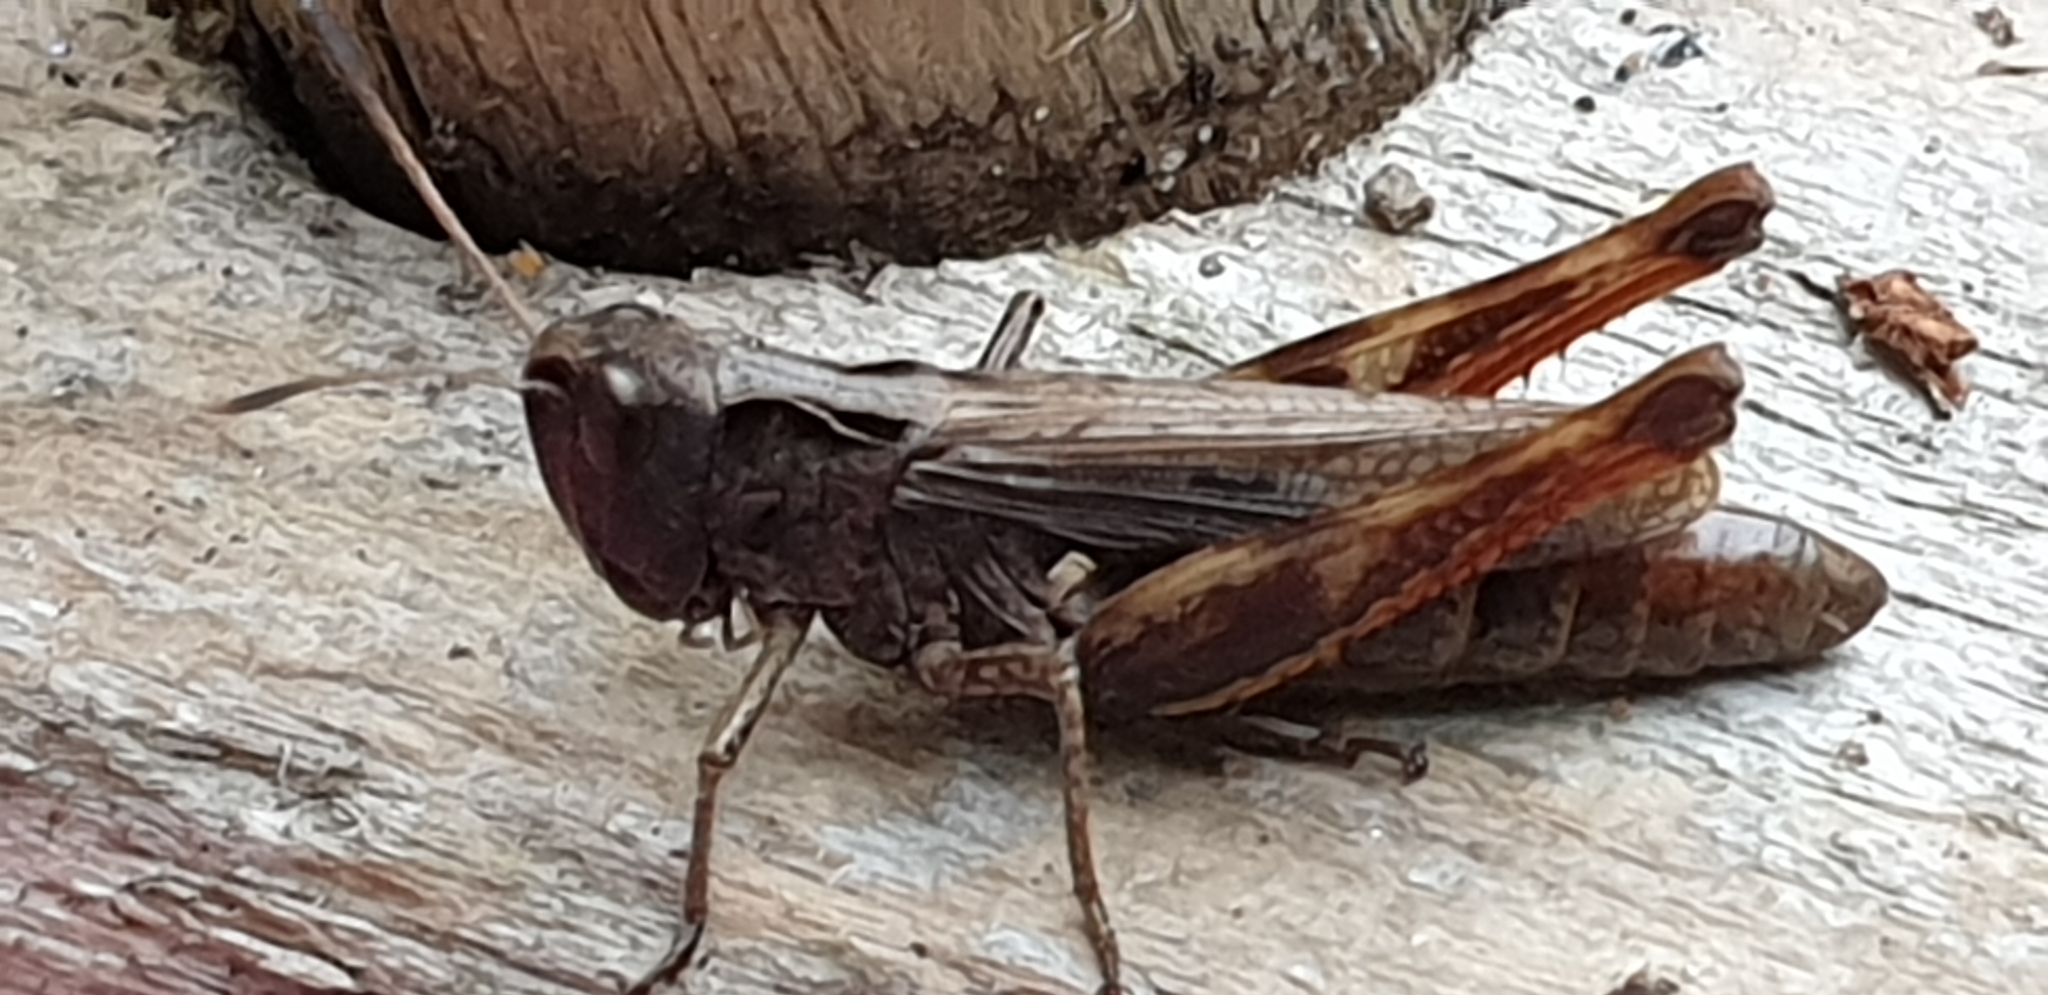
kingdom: Animalia
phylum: Arthropoda
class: Insecta
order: Orthoptera
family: Acrididae
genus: Gomphocerippus
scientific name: Gomphocerippus rufus
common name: Rufous grasshopper
